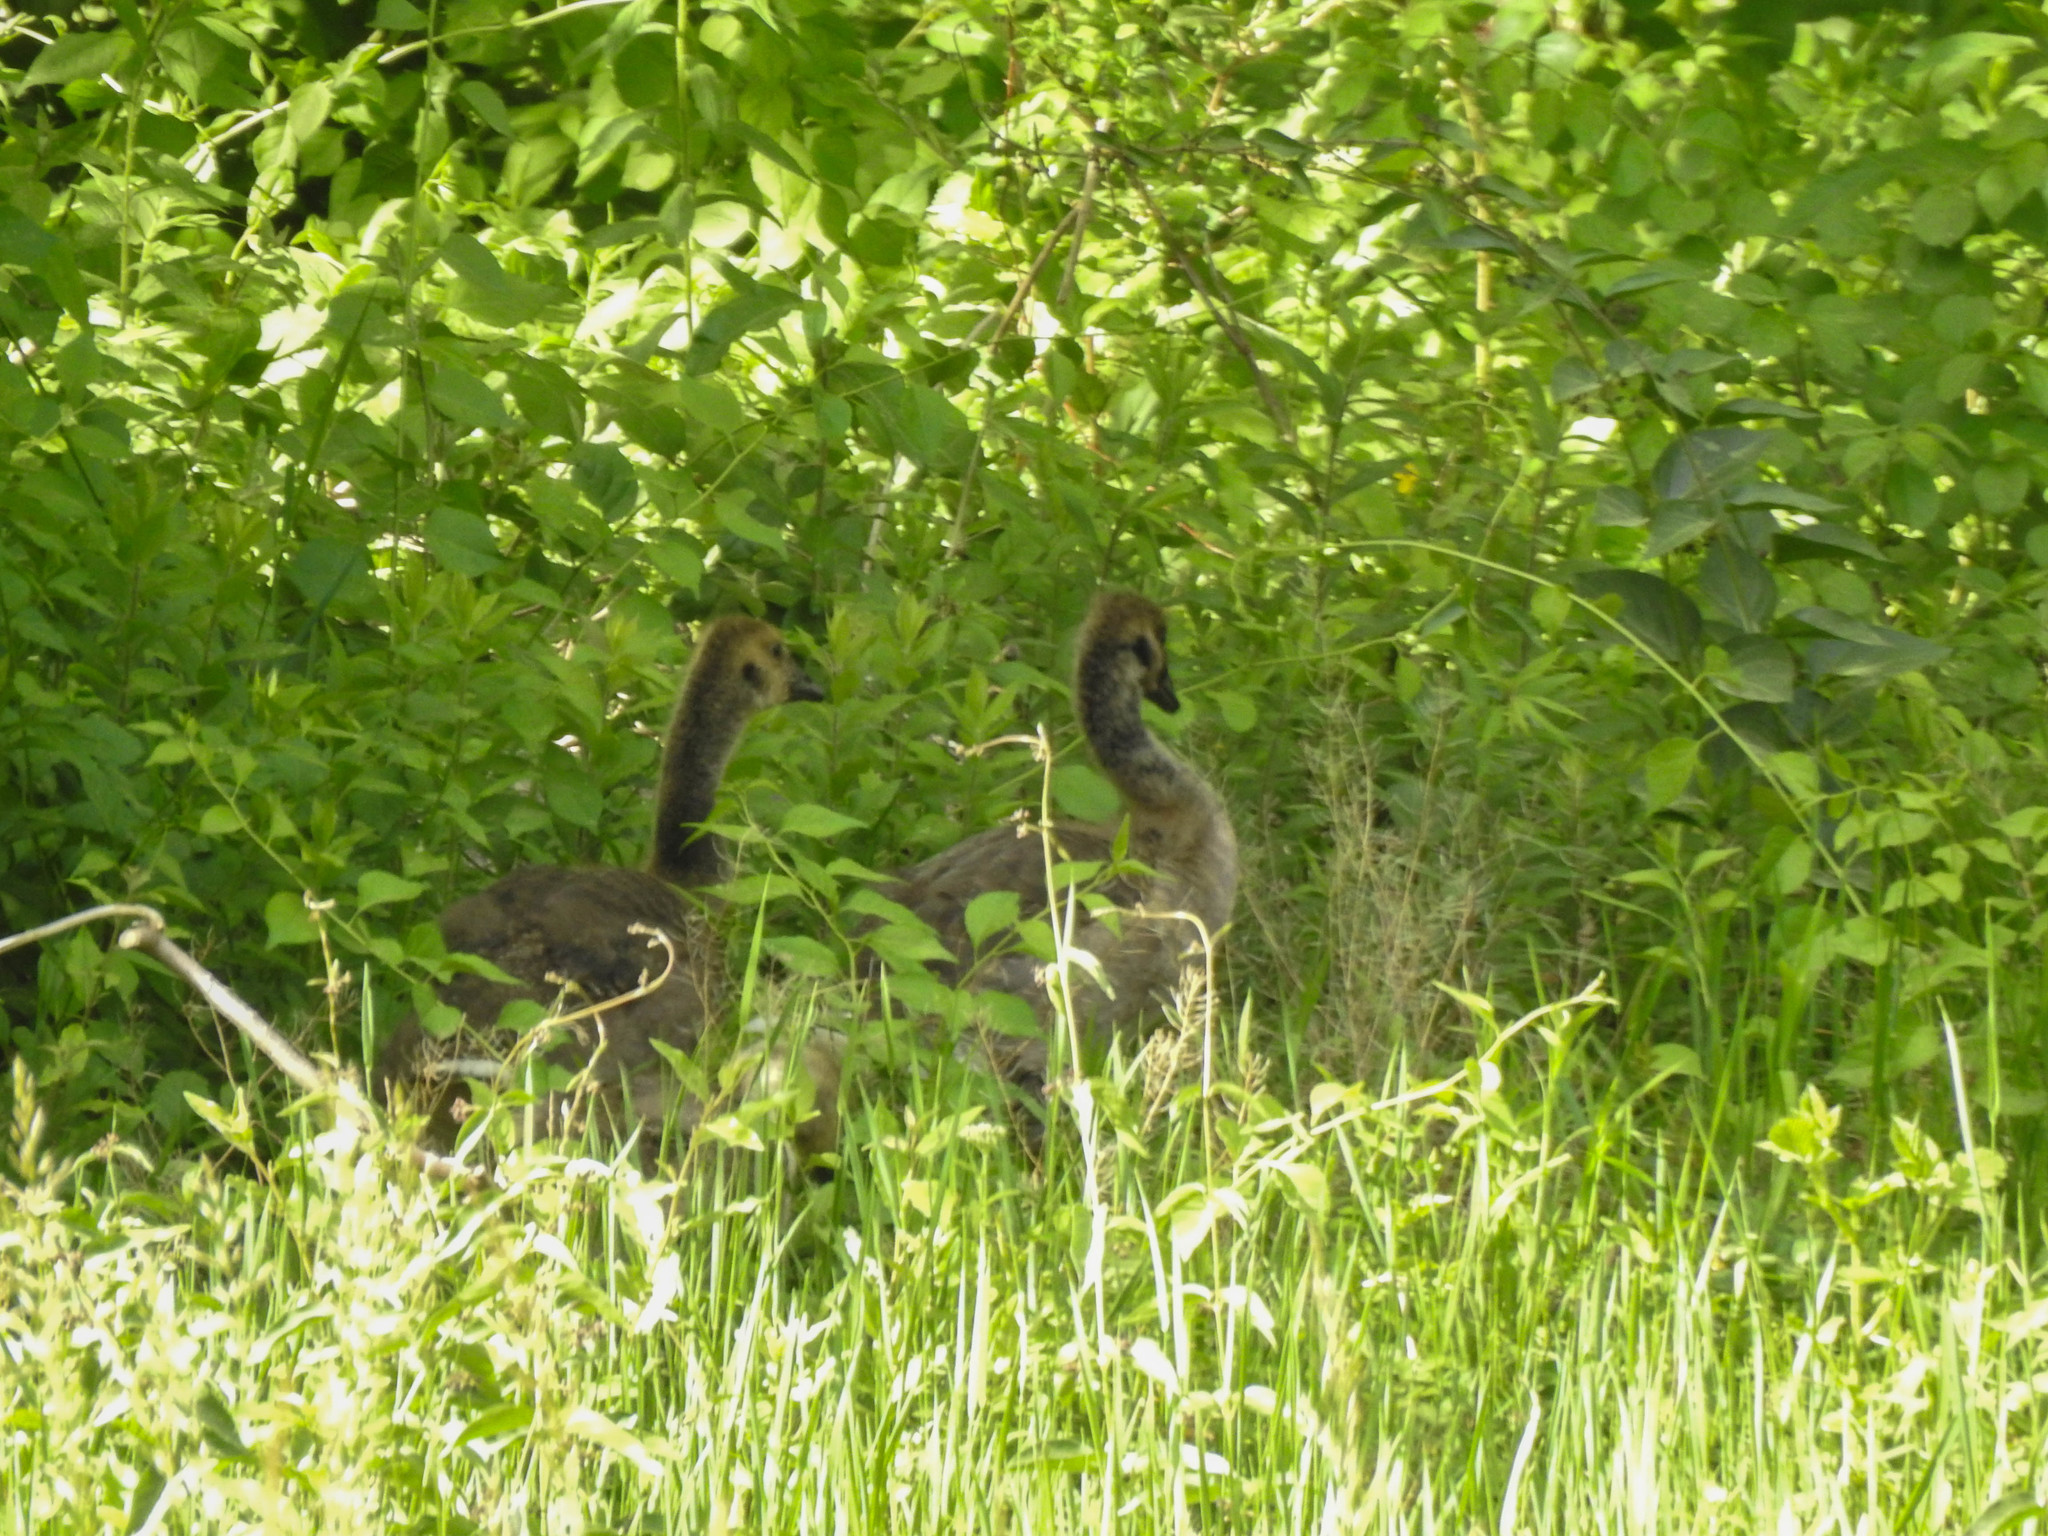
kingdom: Animalia
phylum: Chordata
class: Aves
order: Anseriformes
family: Anatidae
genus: Branta
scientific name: Branta canadensis
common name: Canada goose
